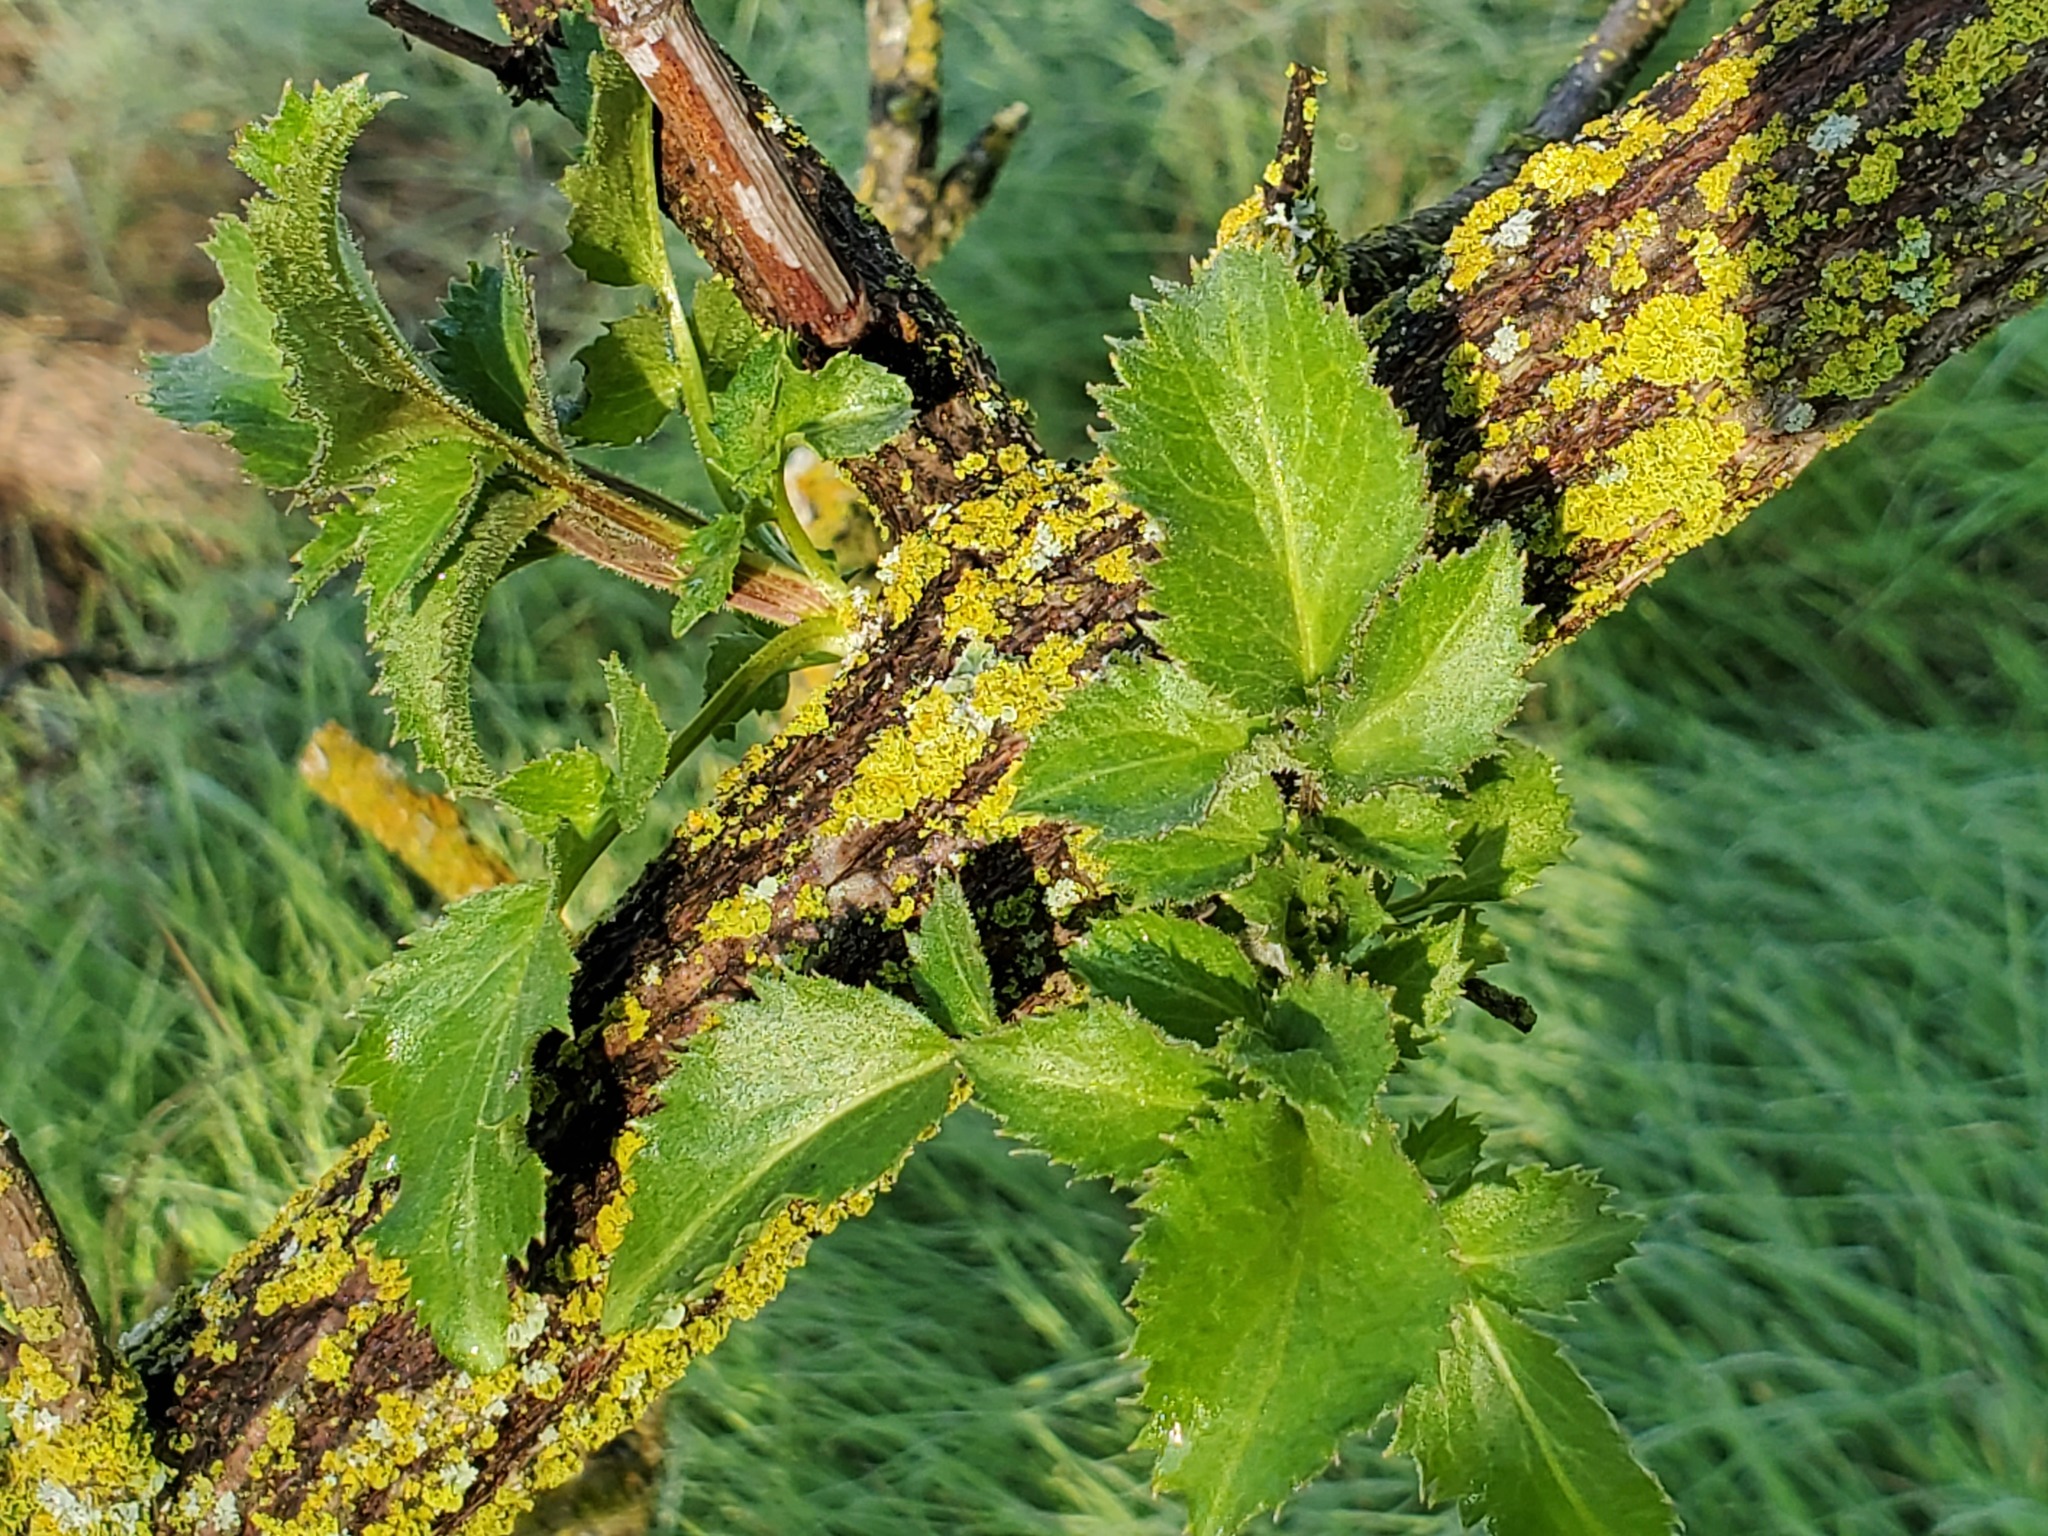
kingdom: Plantae
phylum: Tracheophyta
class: Magnoliopsida
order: Dipsacales
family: Viburnaceae
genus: Sambucus
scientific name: Sambucus cerulea
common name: Blue elder
